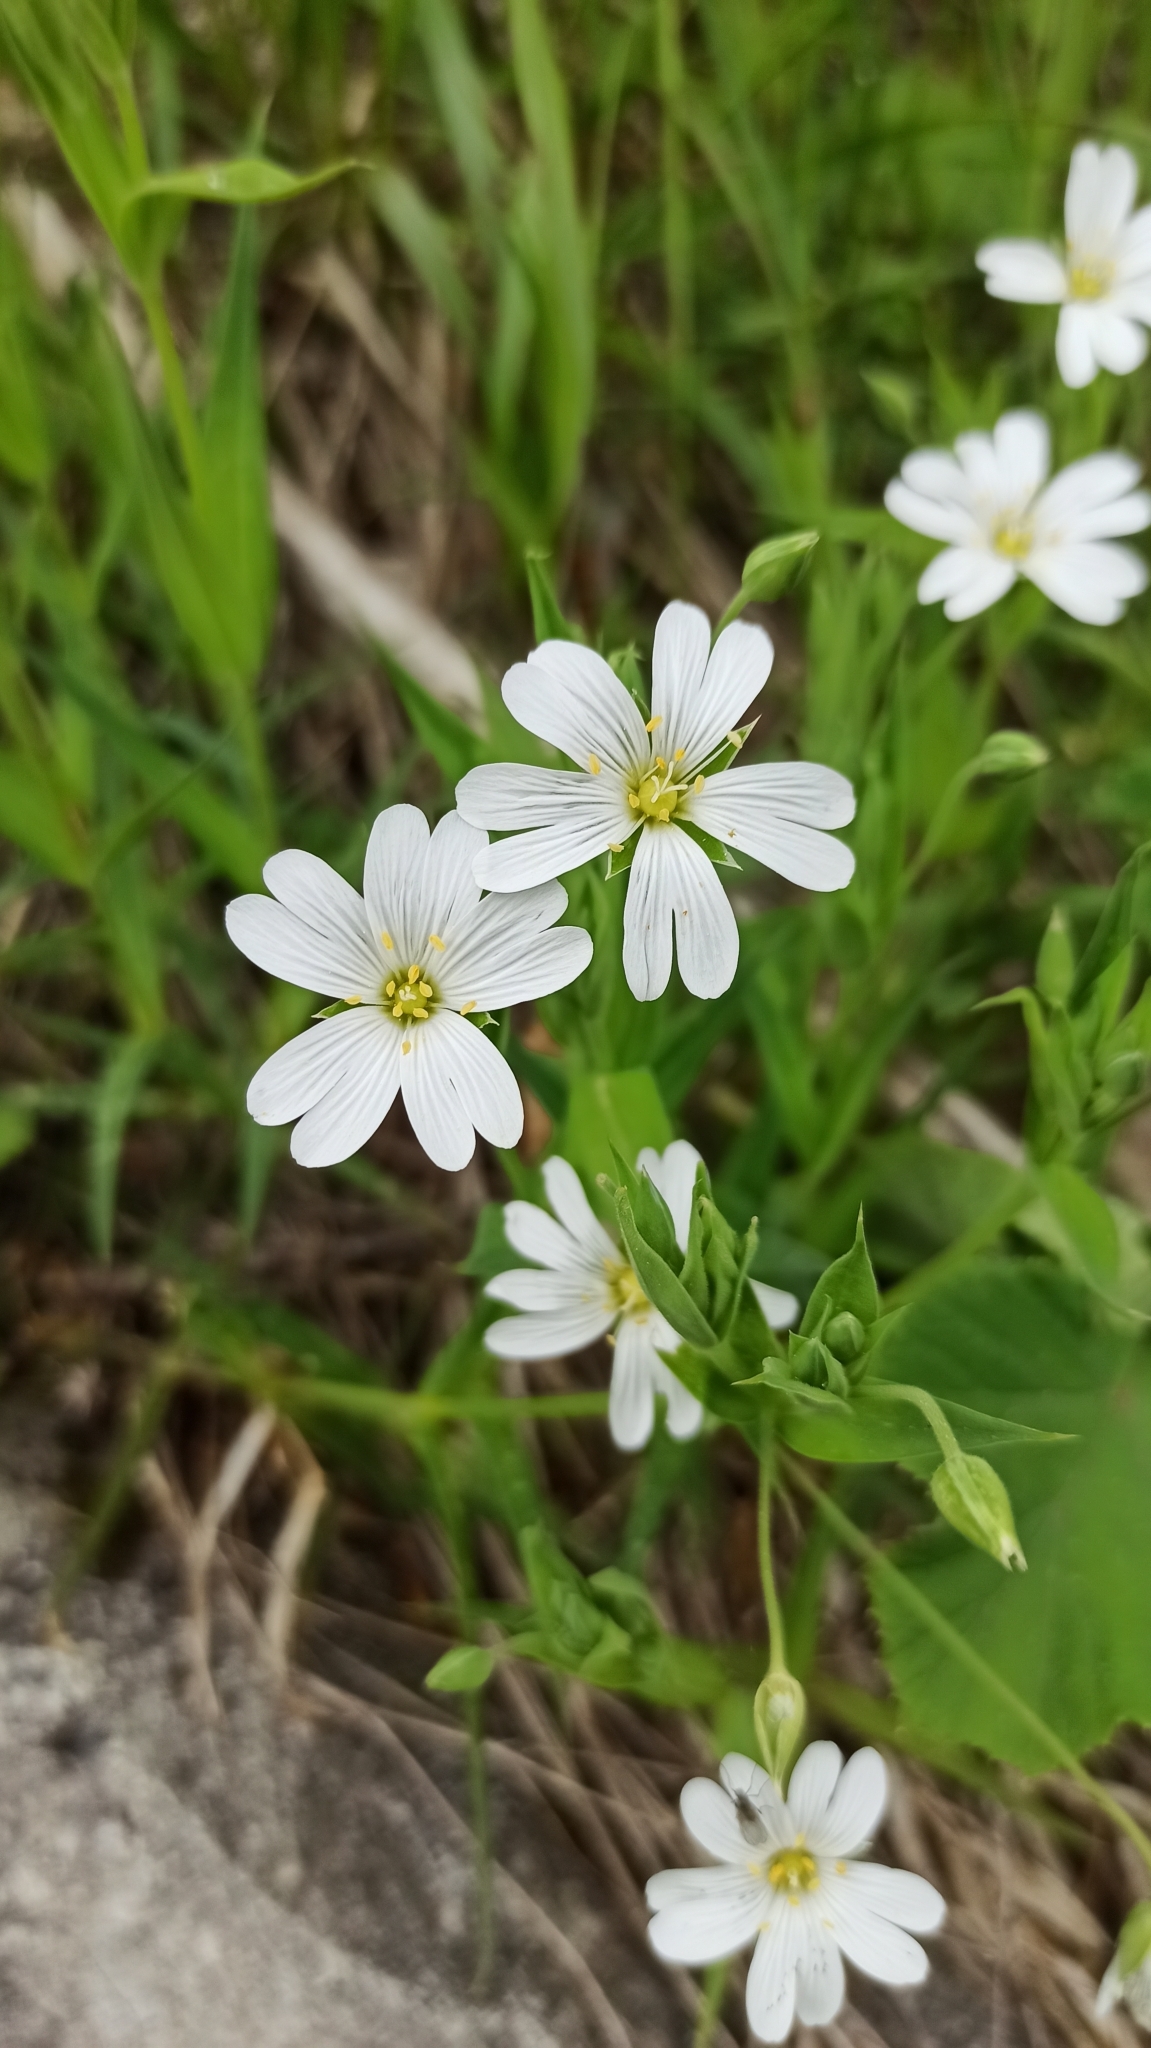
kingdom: Plantae
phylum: Tracheophyta
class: Magnoliopsida
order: Caryophyllales
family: Caryophyllaceae
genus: Rabelera
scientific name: Rabelera holostea
